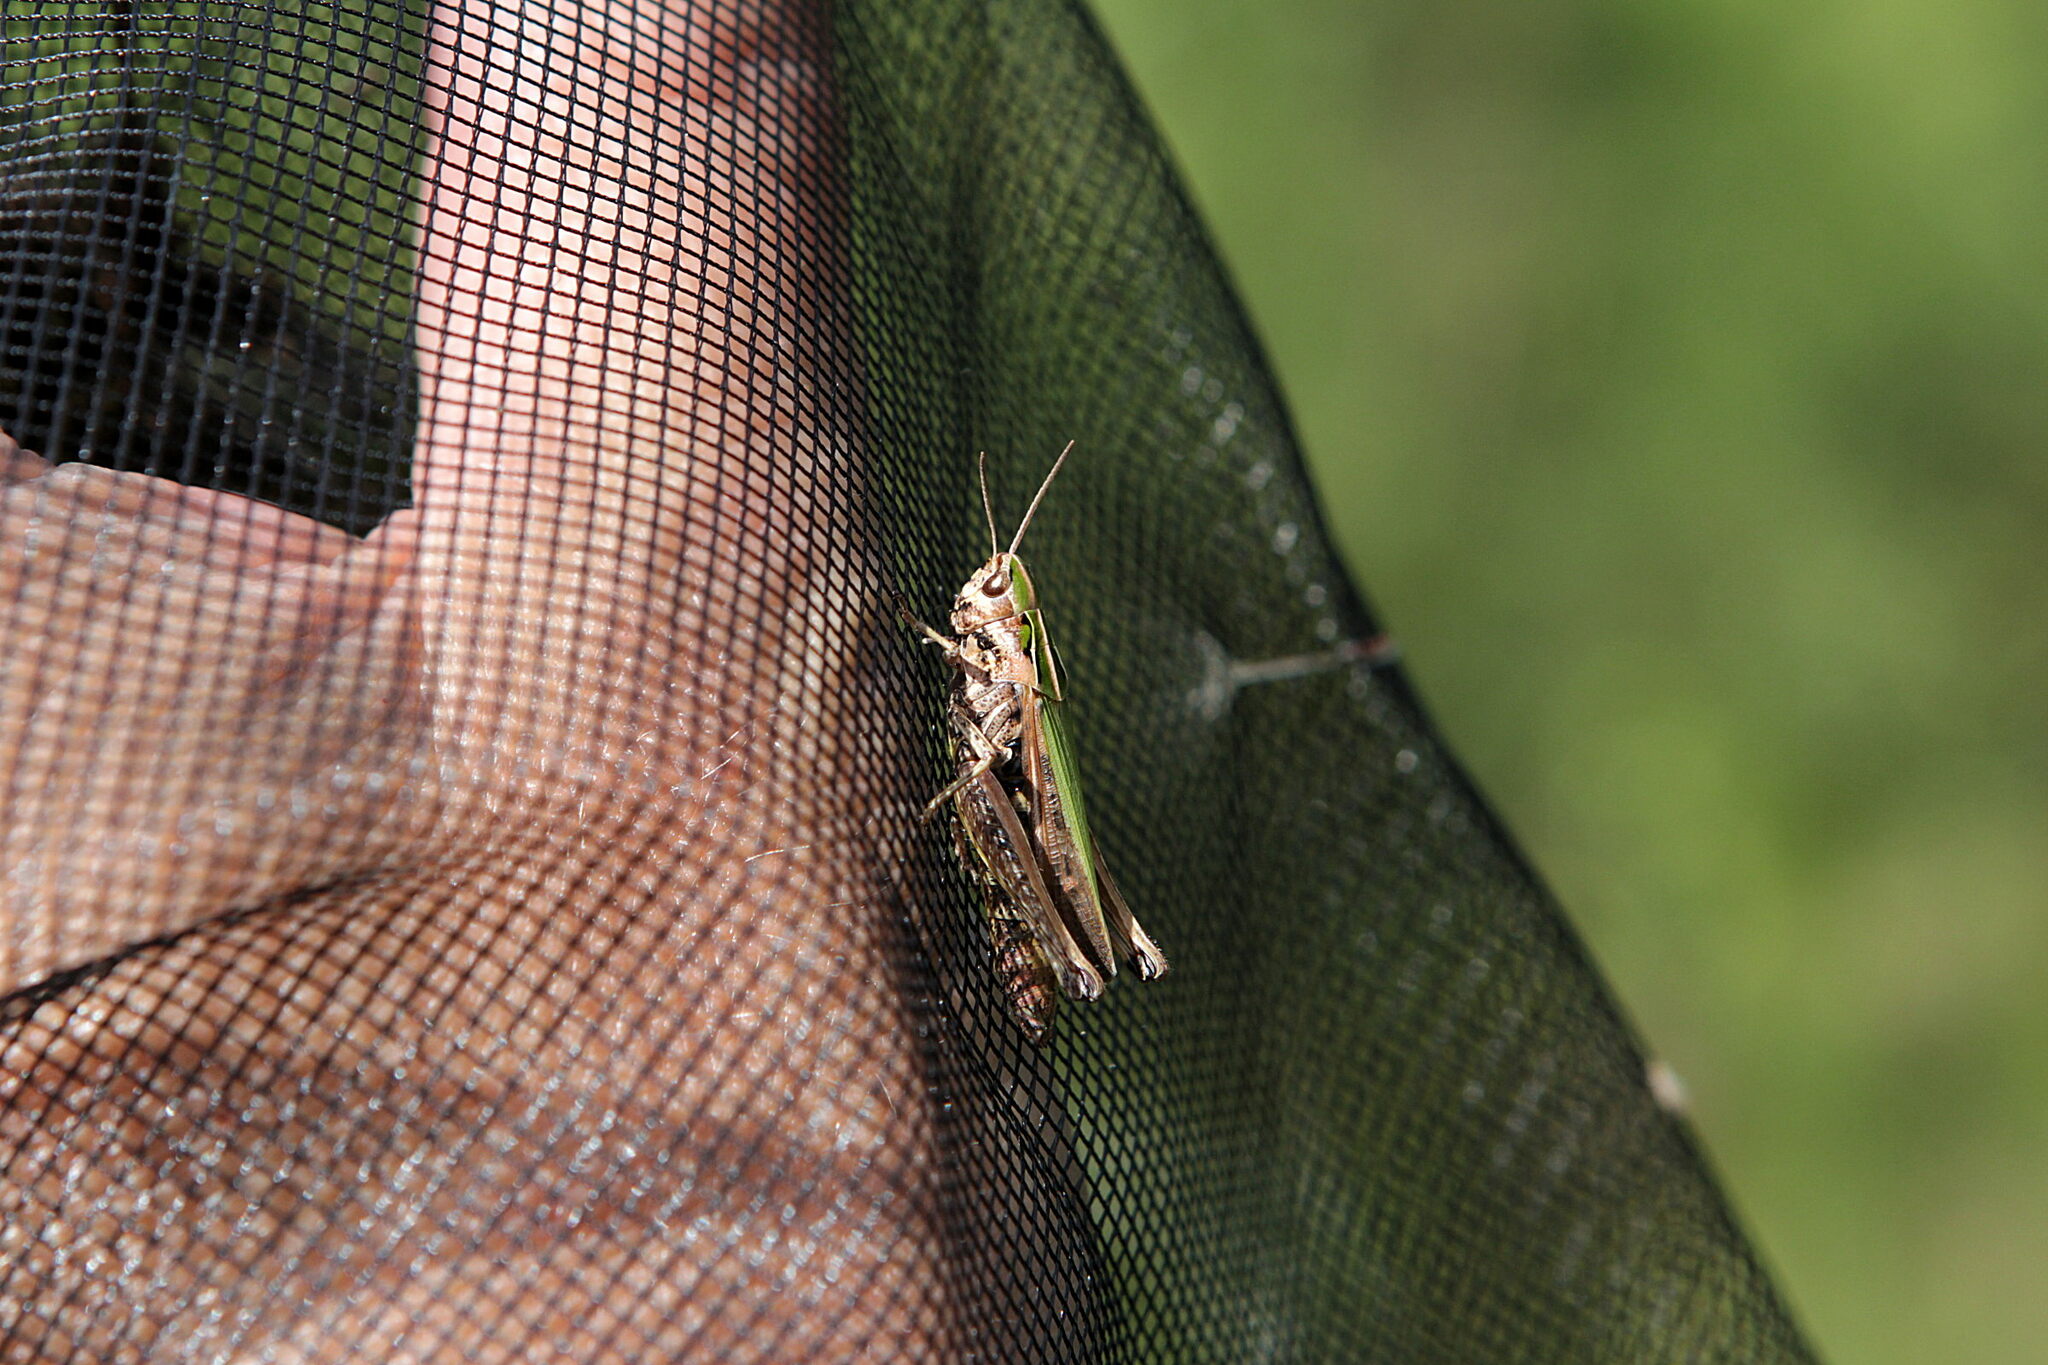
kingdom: Animalia
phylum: Arthropoda
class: Insecta
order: Orthoptera
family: Acrididae
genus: Omocestus
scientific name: Omocestus viridulus
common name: Common green grasshopper
